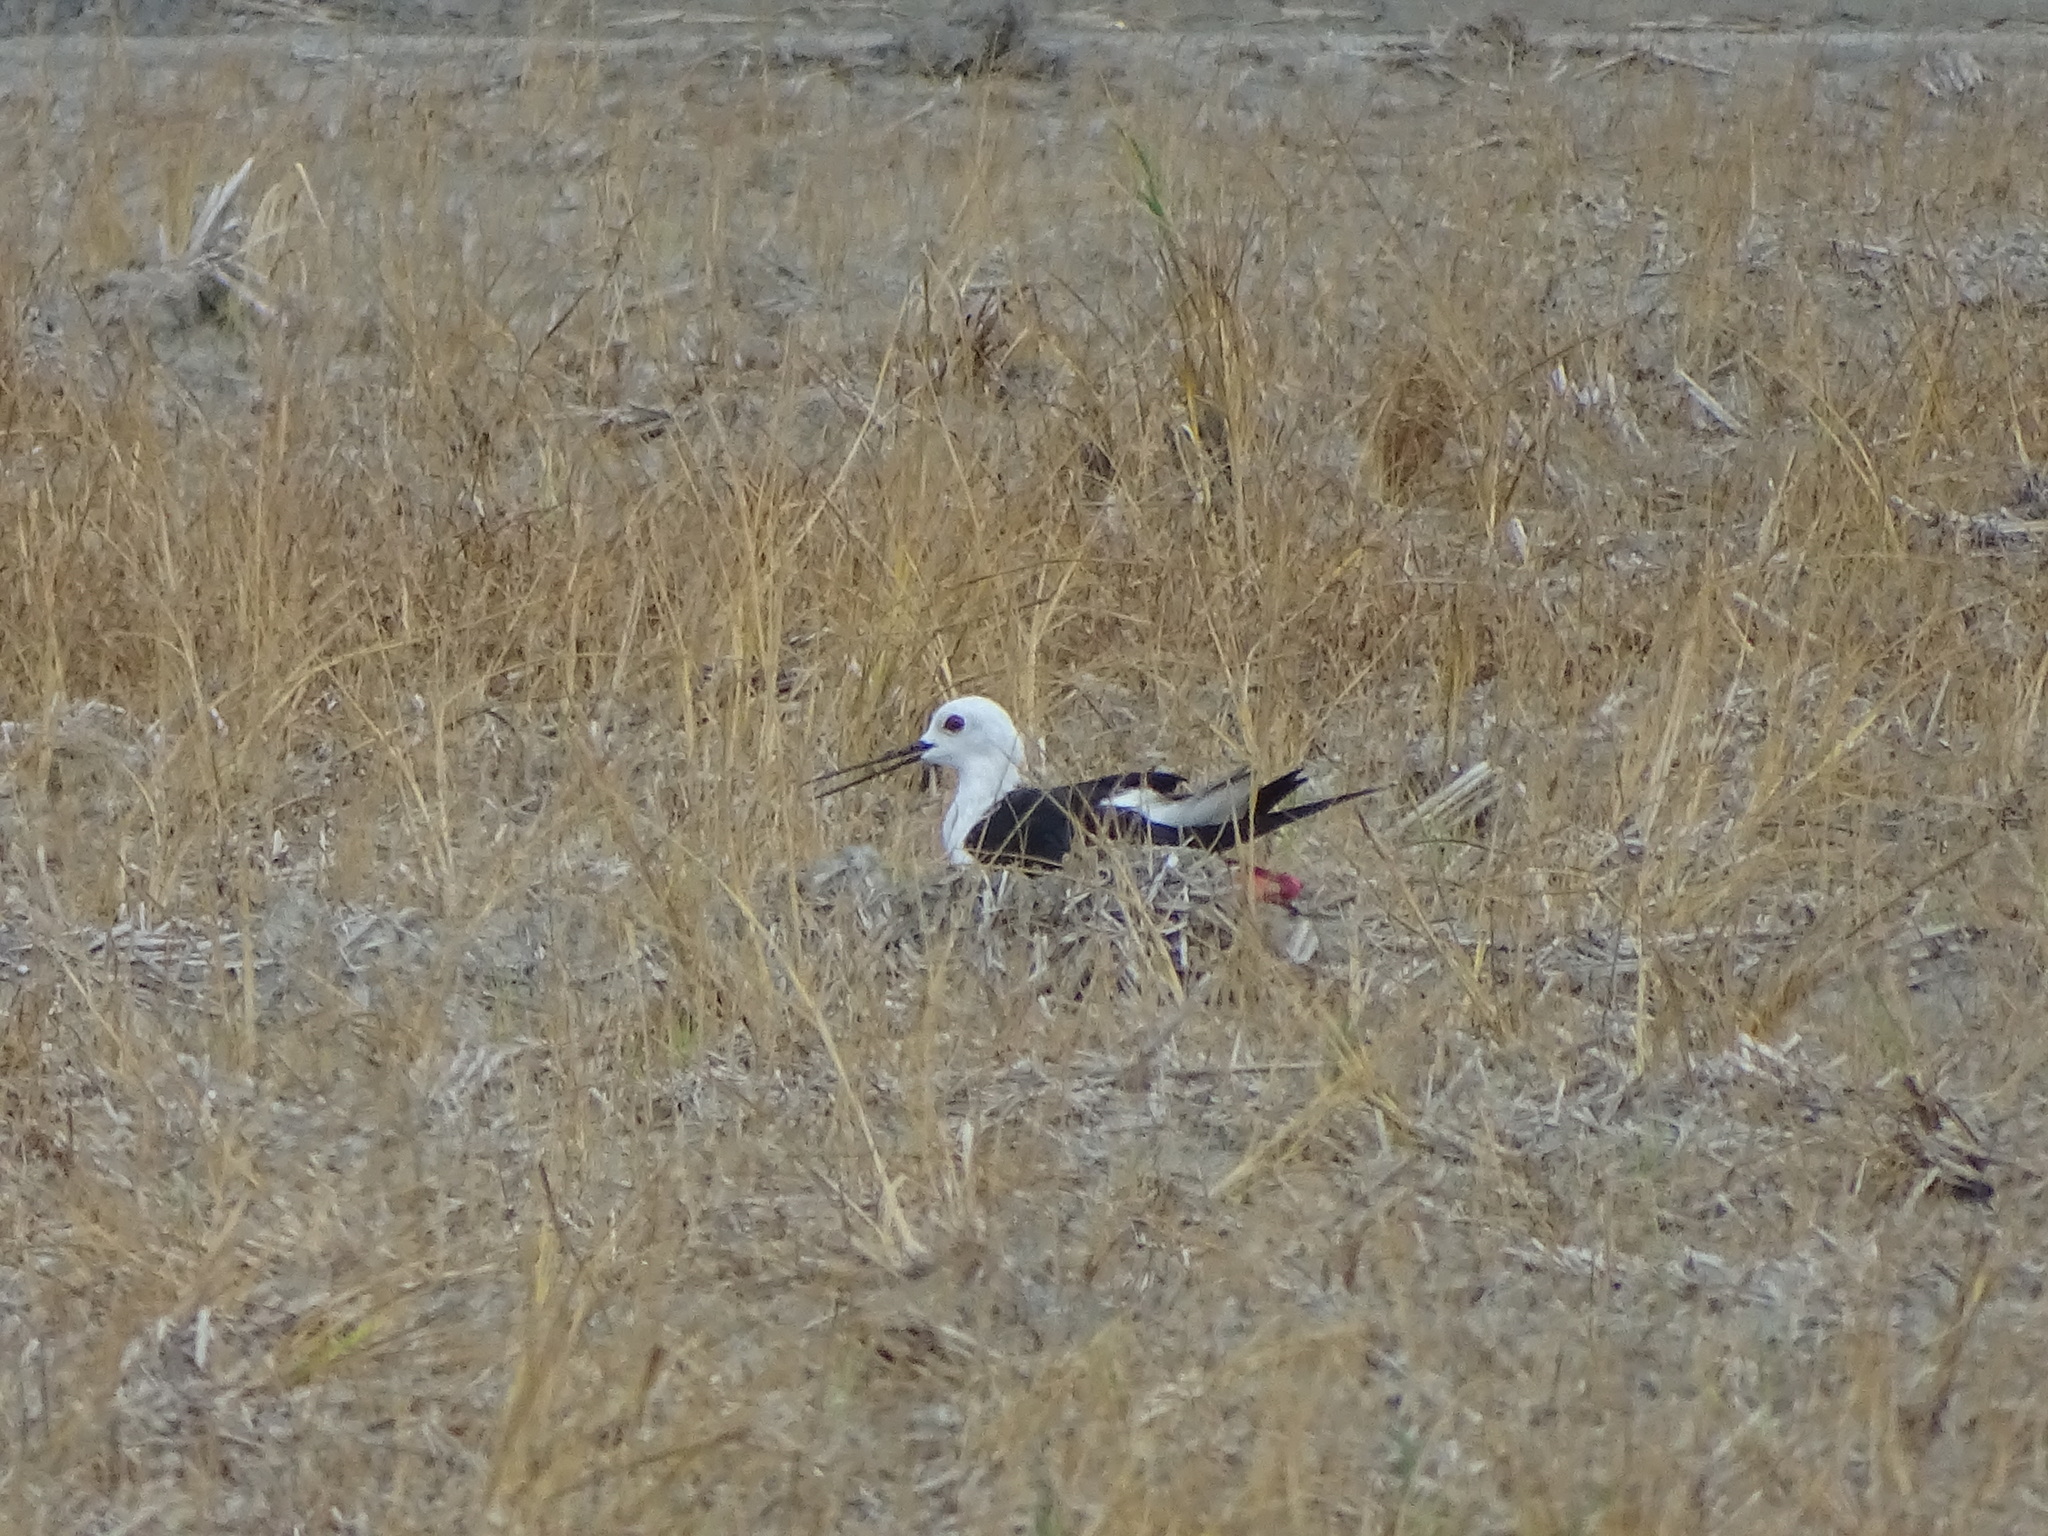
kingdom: Animalia
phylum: Chordata
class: Aves
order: Charadriiformes
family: Recurvirostridae
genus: Himantopus
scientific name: Himantopus himantopus
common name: Black-winged stilt
